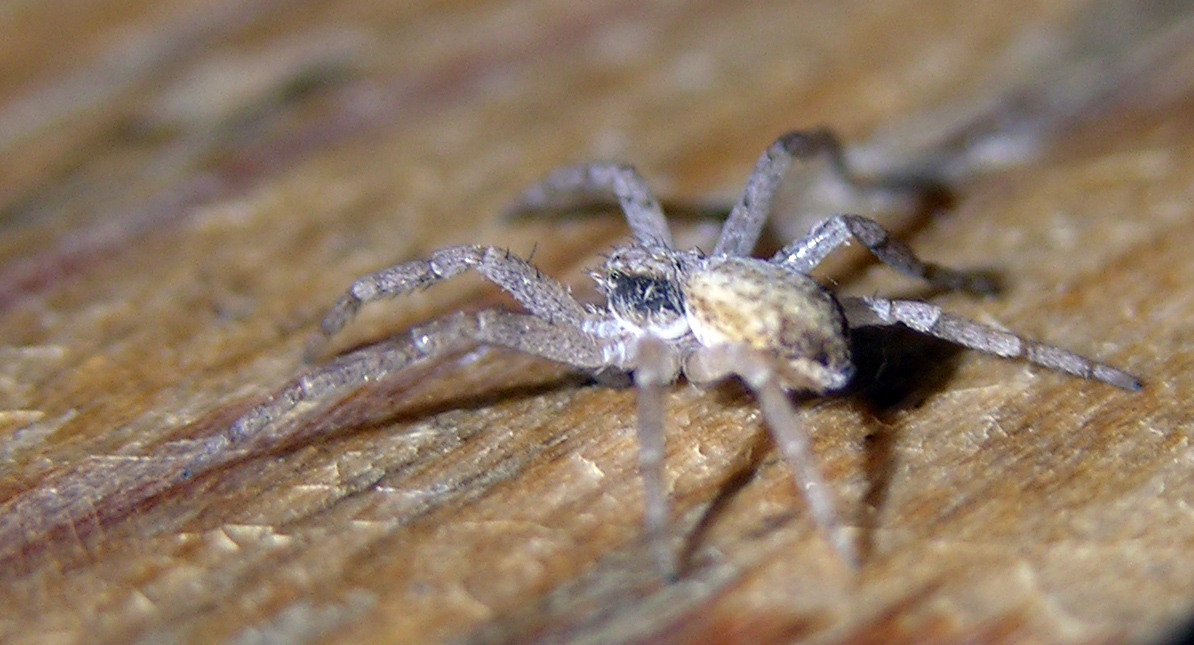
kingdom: Animalia
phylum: Arthropoda
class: Arachnida
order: Araneae
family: Philodromidae
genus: Philodromus
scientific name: Philodromus dispar
